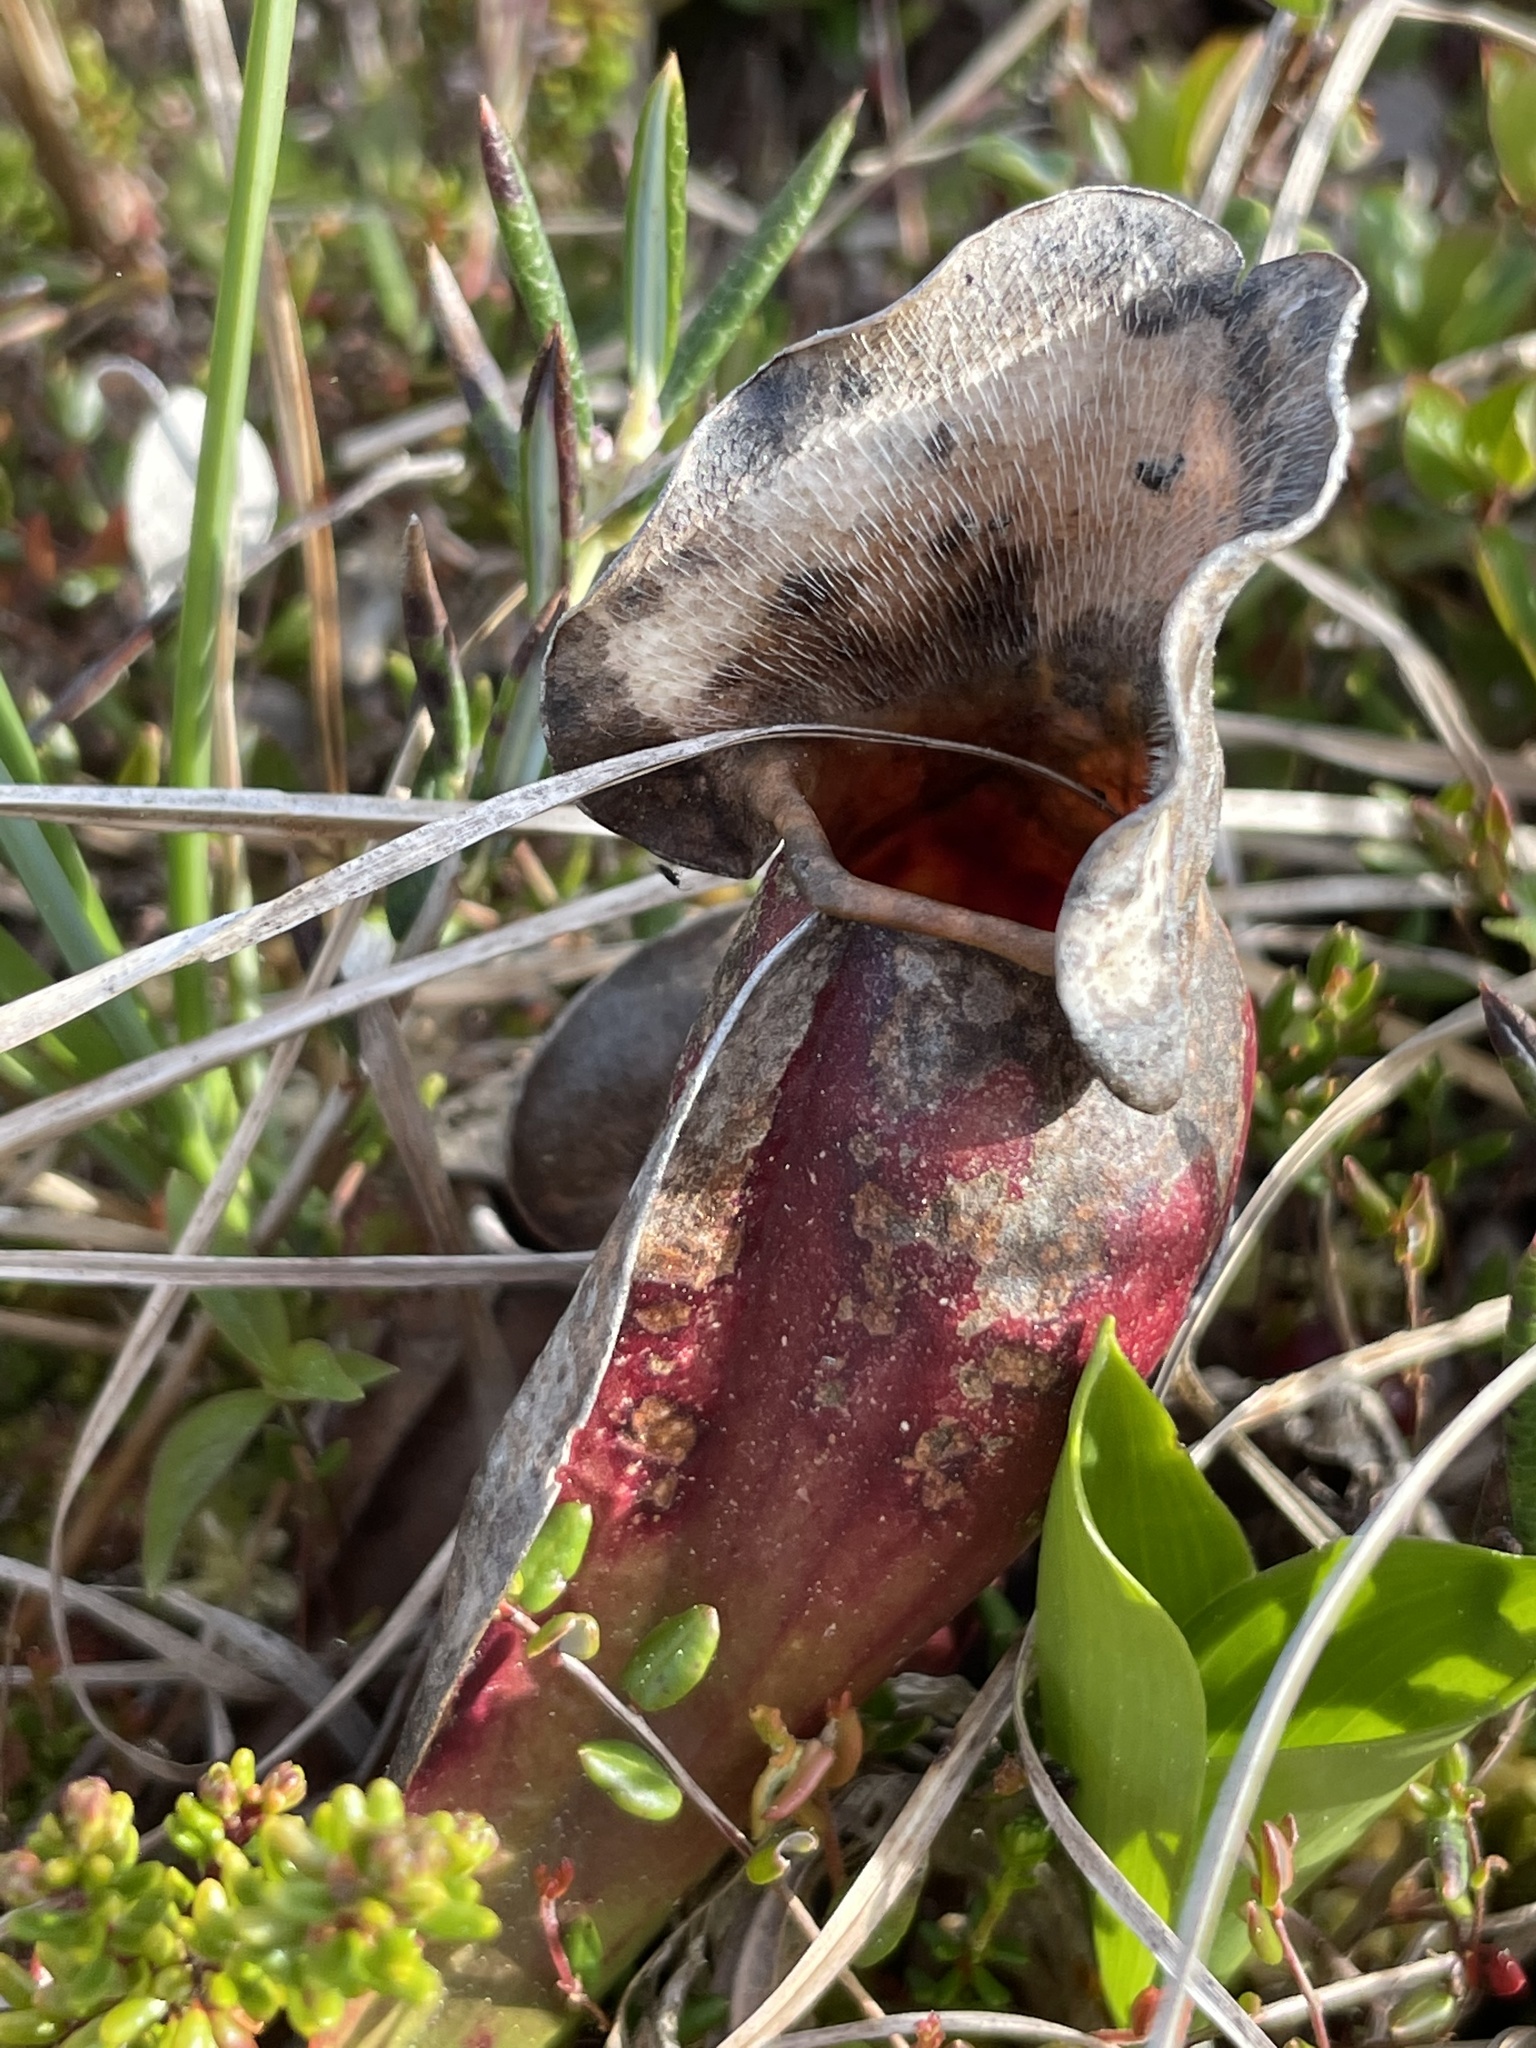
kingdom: Plantae
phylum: Tracheophyta
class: Magnoliopsida
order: Ericales
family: Sarraceniaceae
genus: Sarracenia
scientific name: Sarracenia purpurea
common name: Pitcherplant
